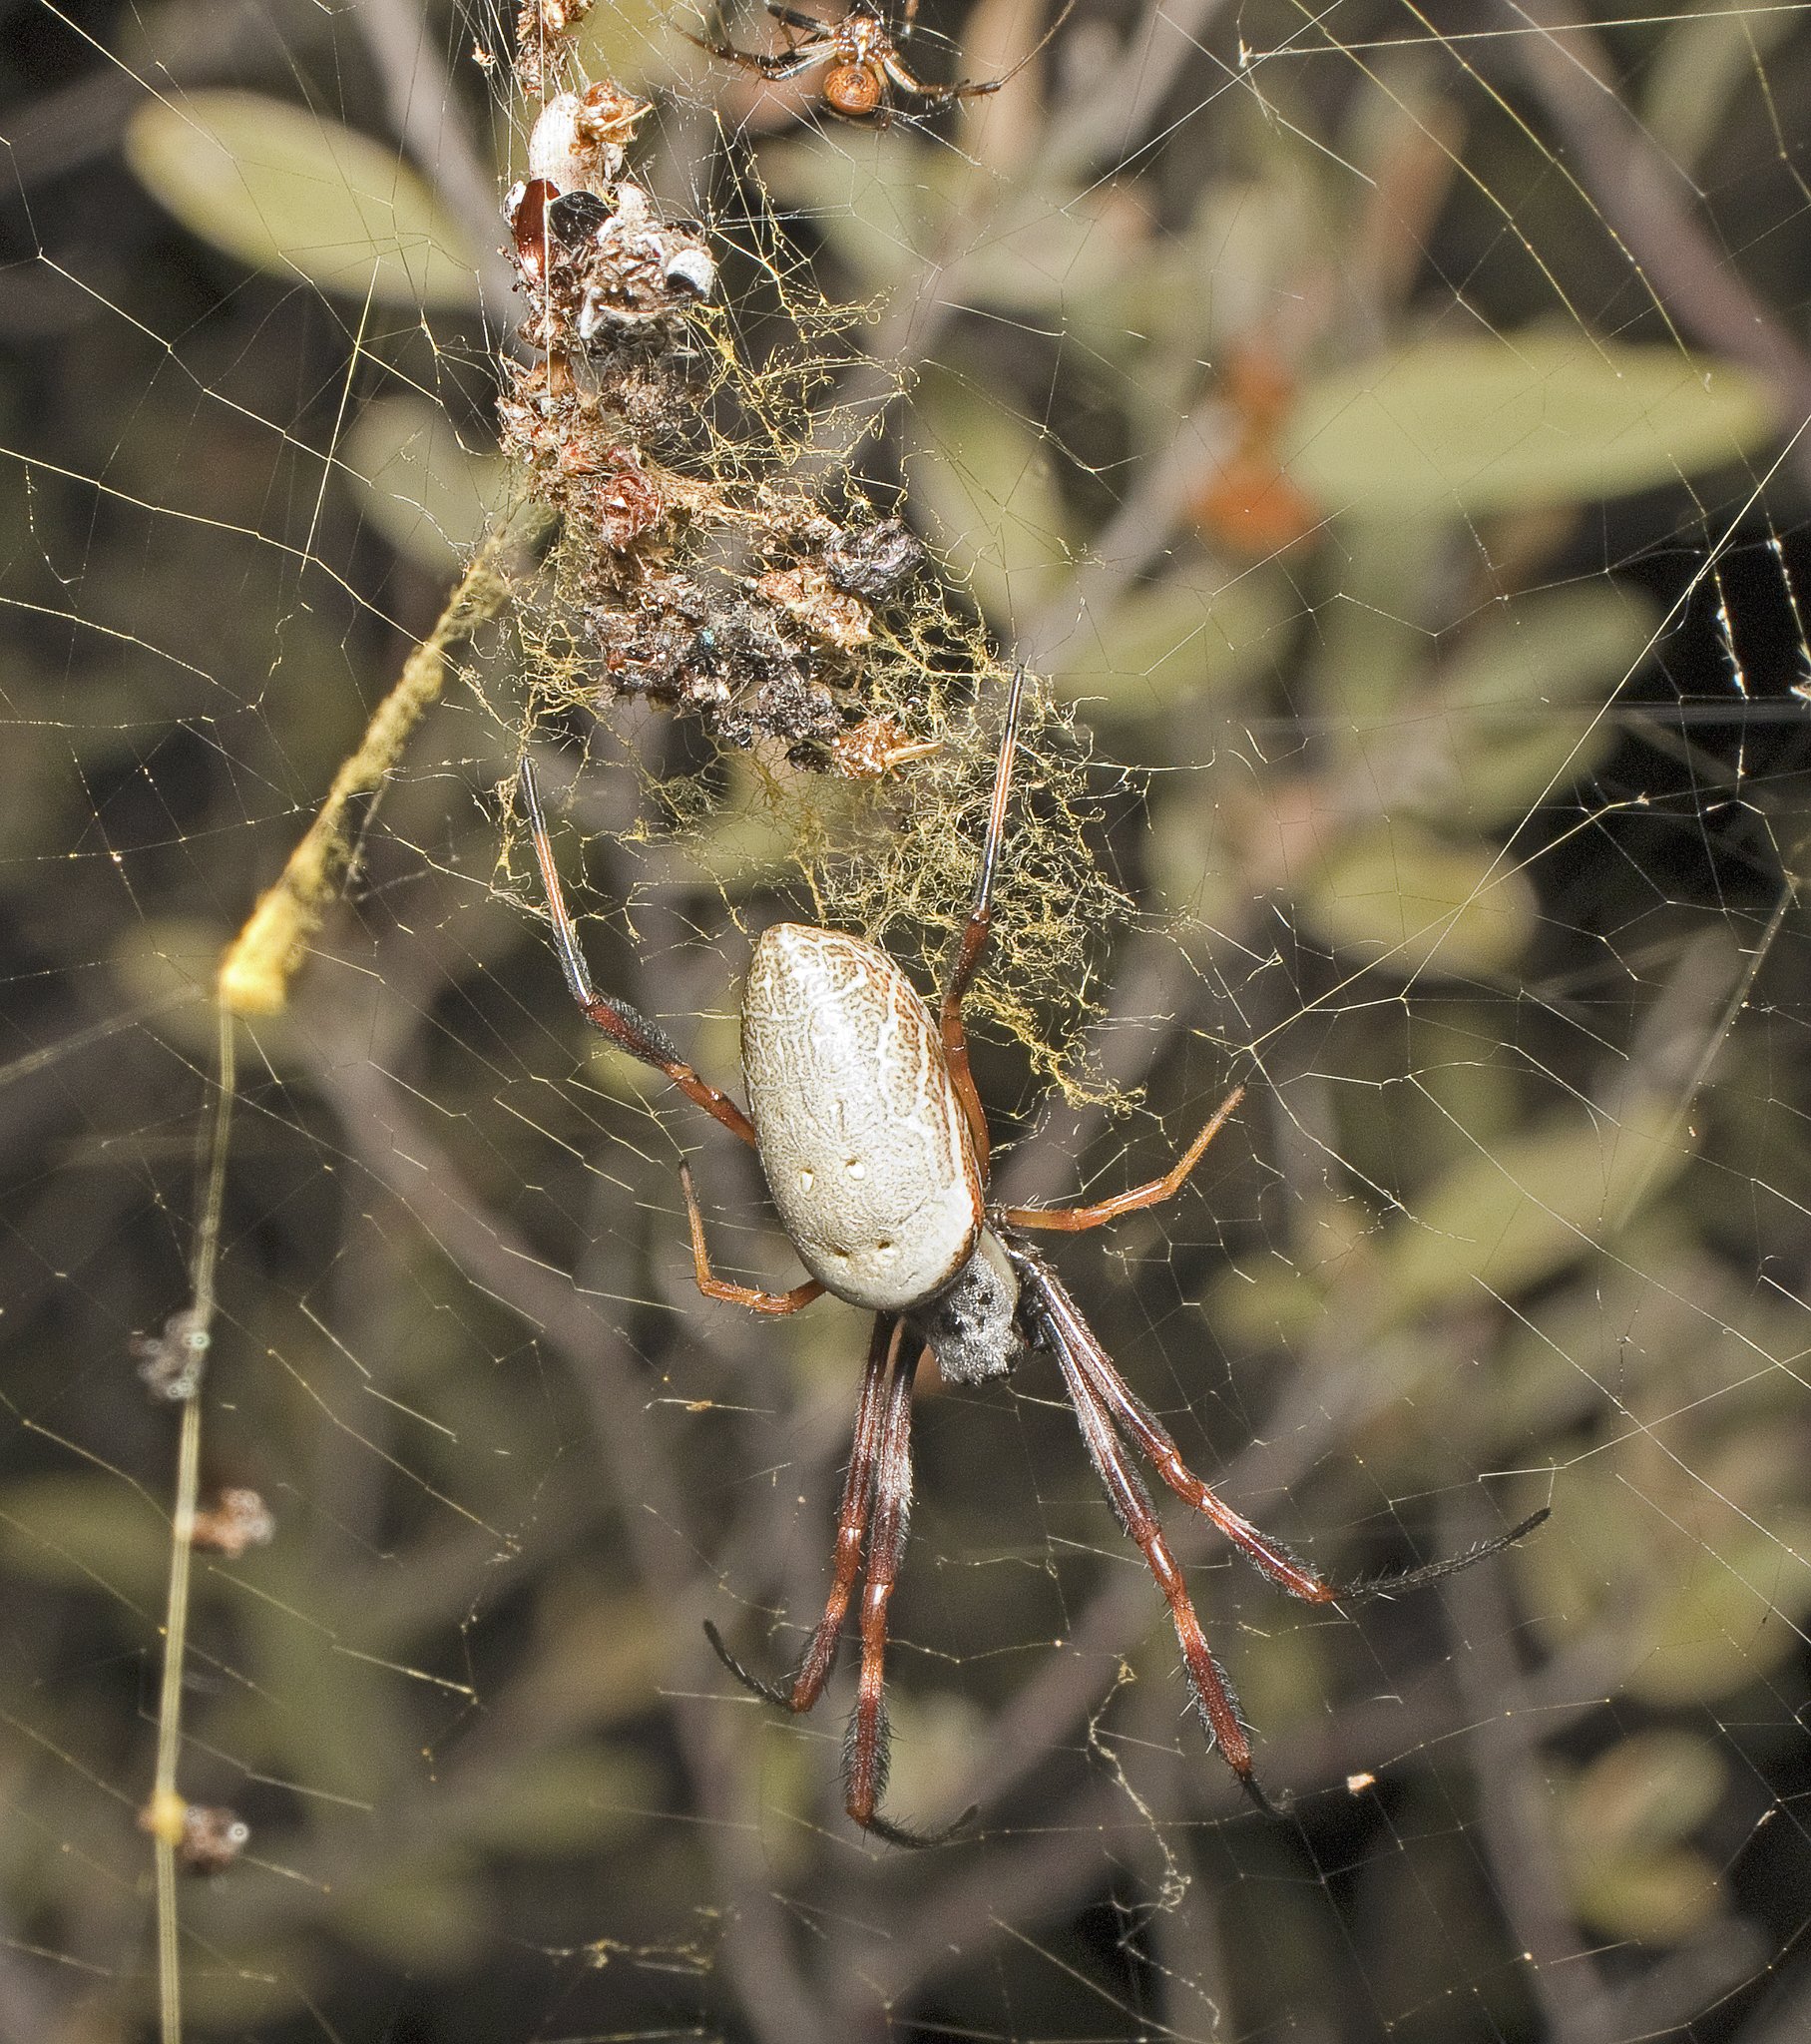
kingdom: Animalia
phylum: Arthropoda
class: Arachnida
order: Araneae
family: Araneidae
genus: Trichonephila
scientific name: Trichonephila edulis
